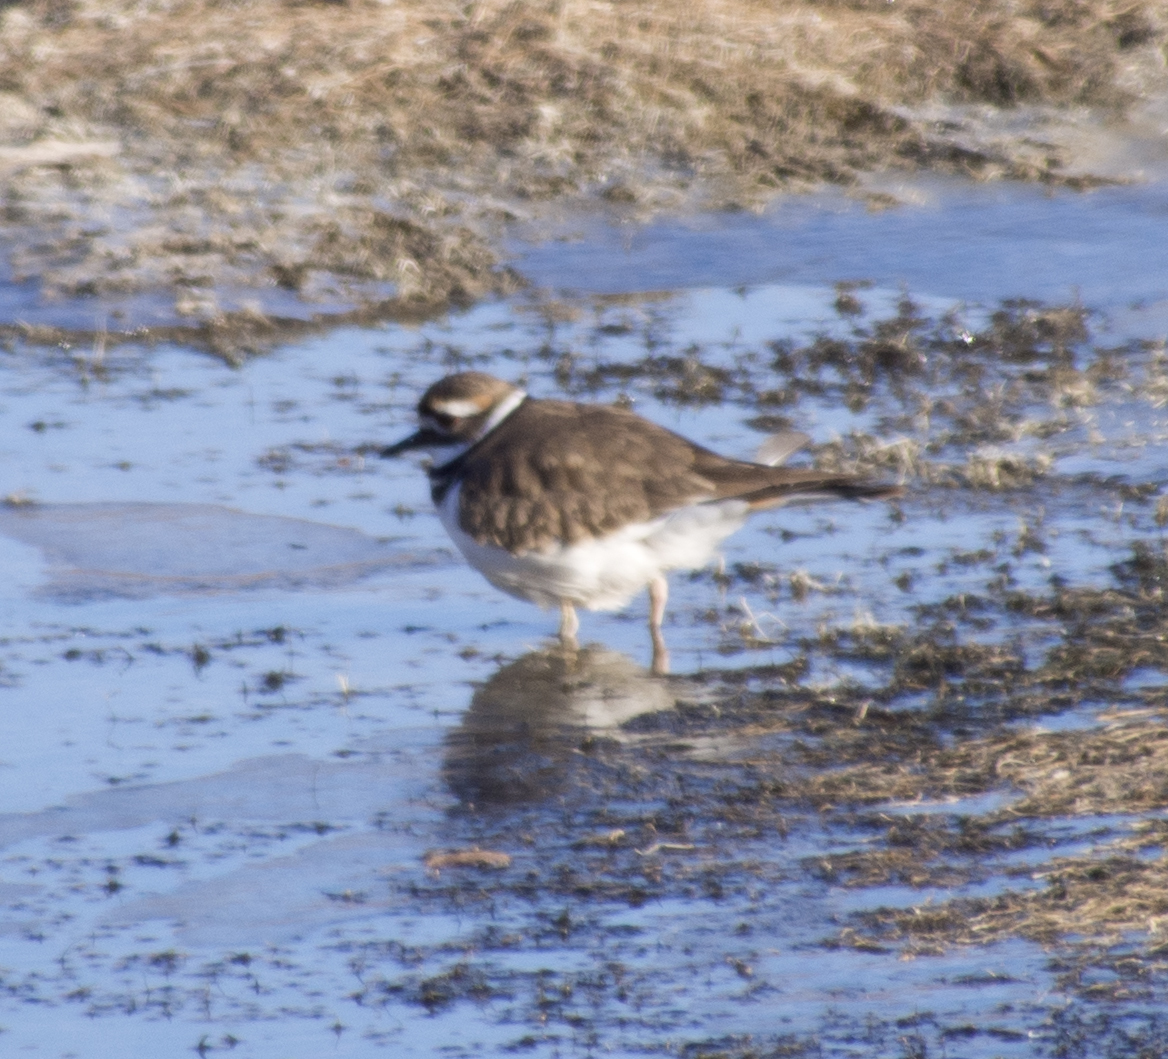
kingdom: Animalia
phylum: Chordata
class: Aves
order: Charadriiformes
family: Charadriidae
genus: Charadrius
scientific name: Charadrius vociferus
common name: Killdeer
